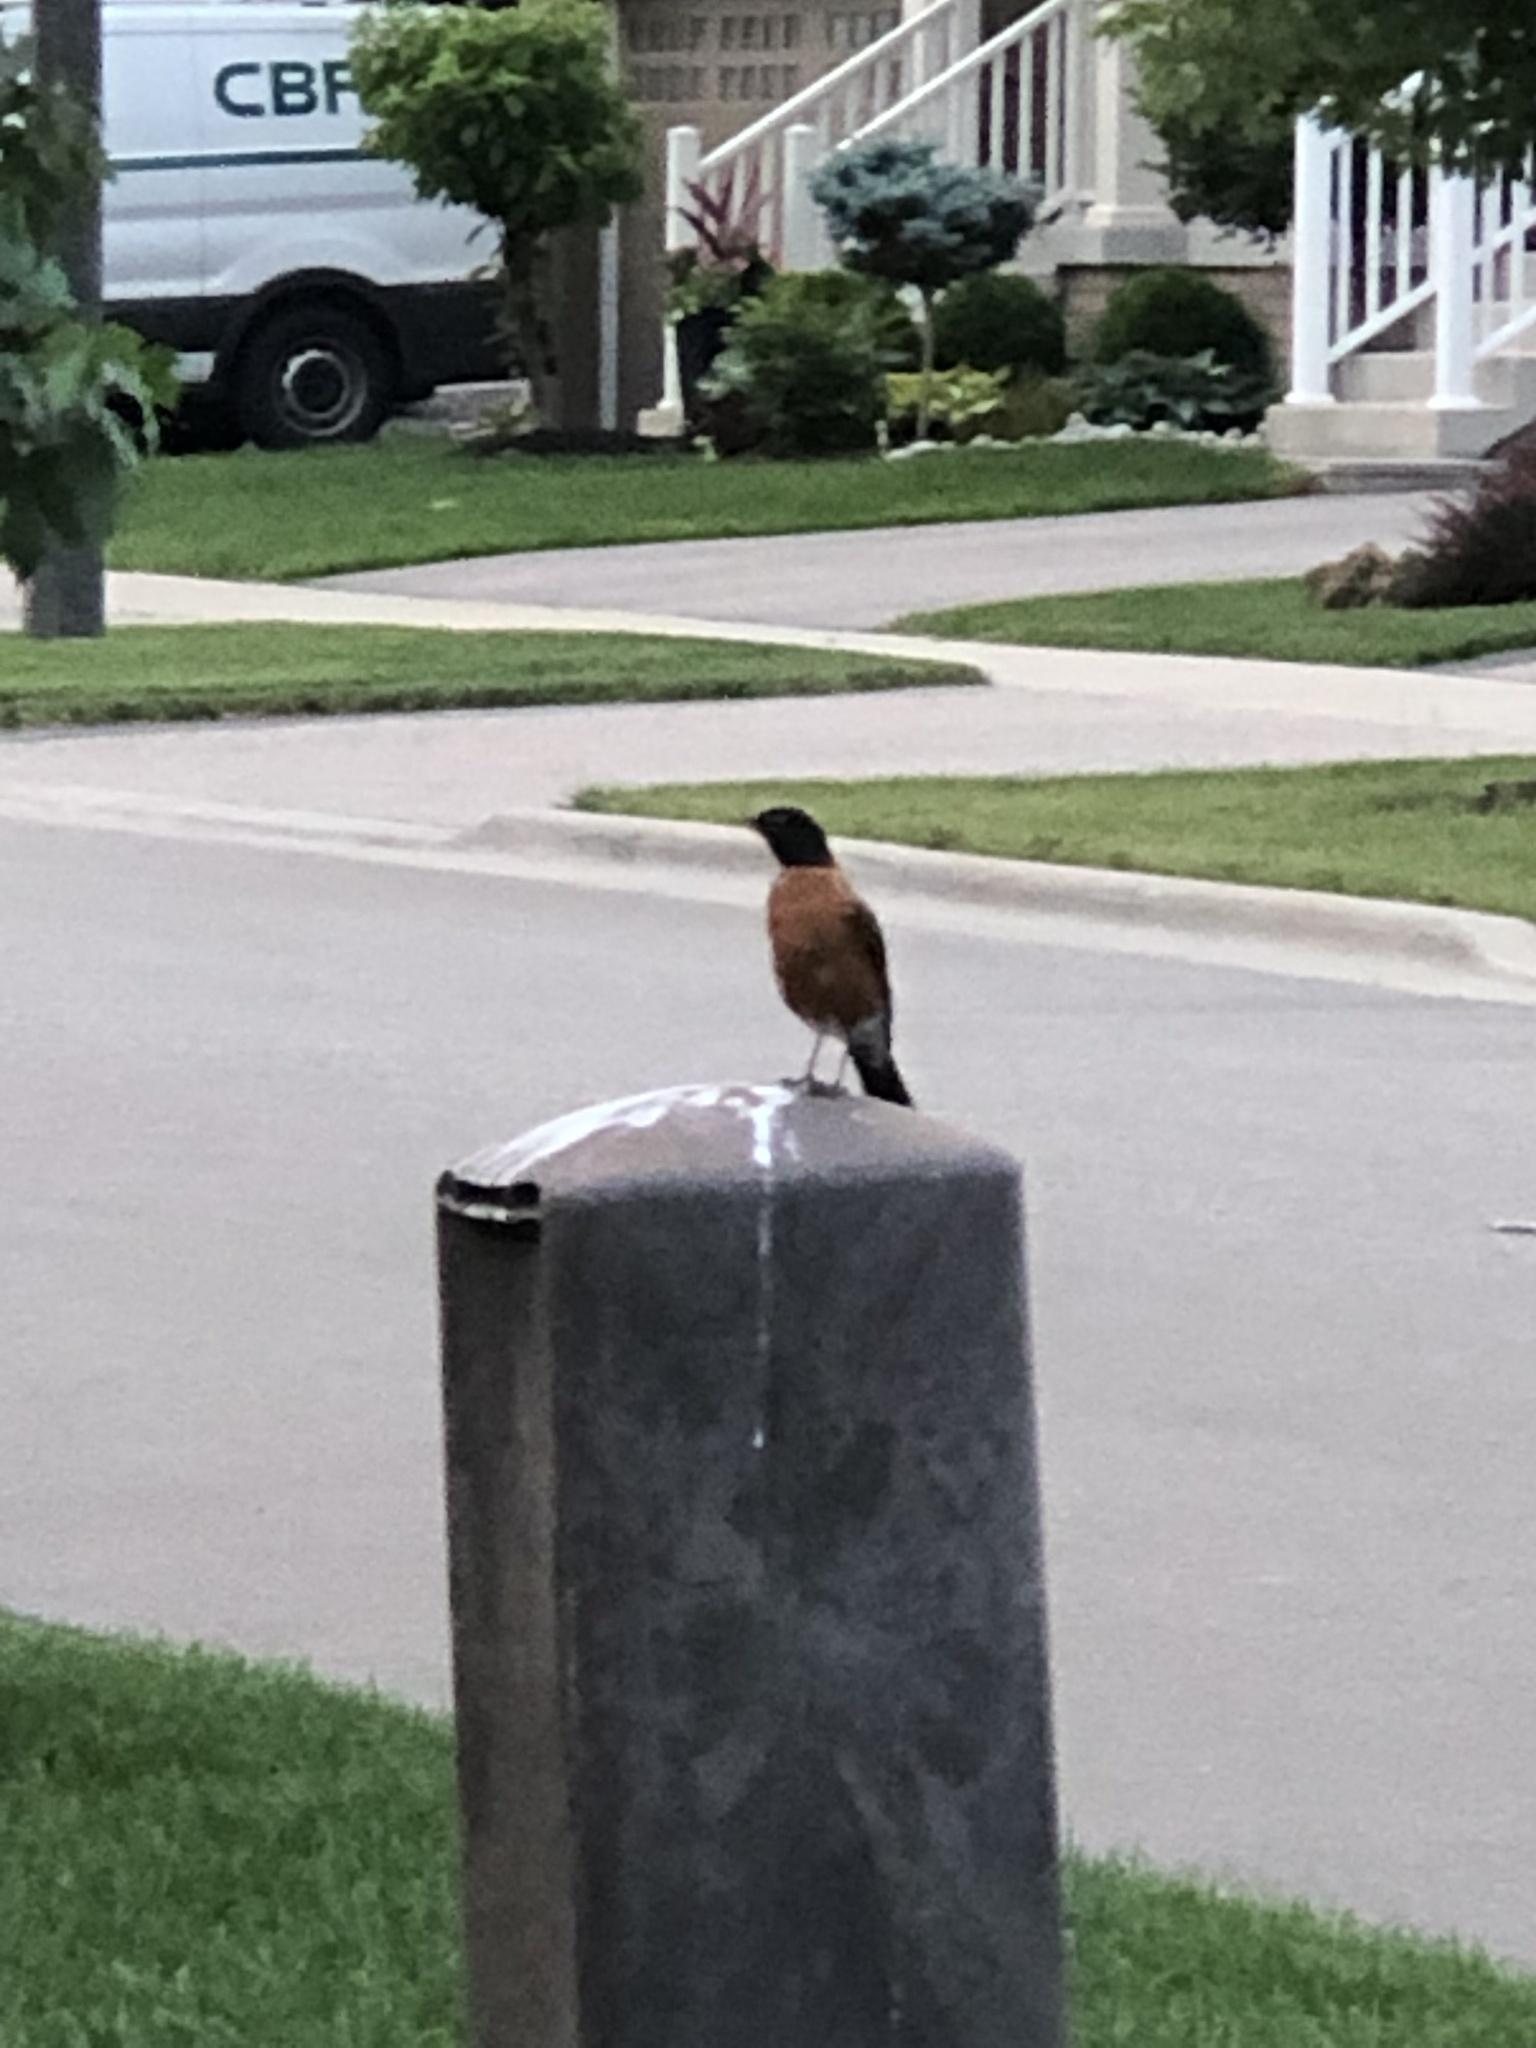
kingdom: Animalia
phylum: Chordata
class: Aves
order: Passeriformes
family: Turdidae
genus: Turdus
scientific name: Turdus migratorius
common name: American robin
